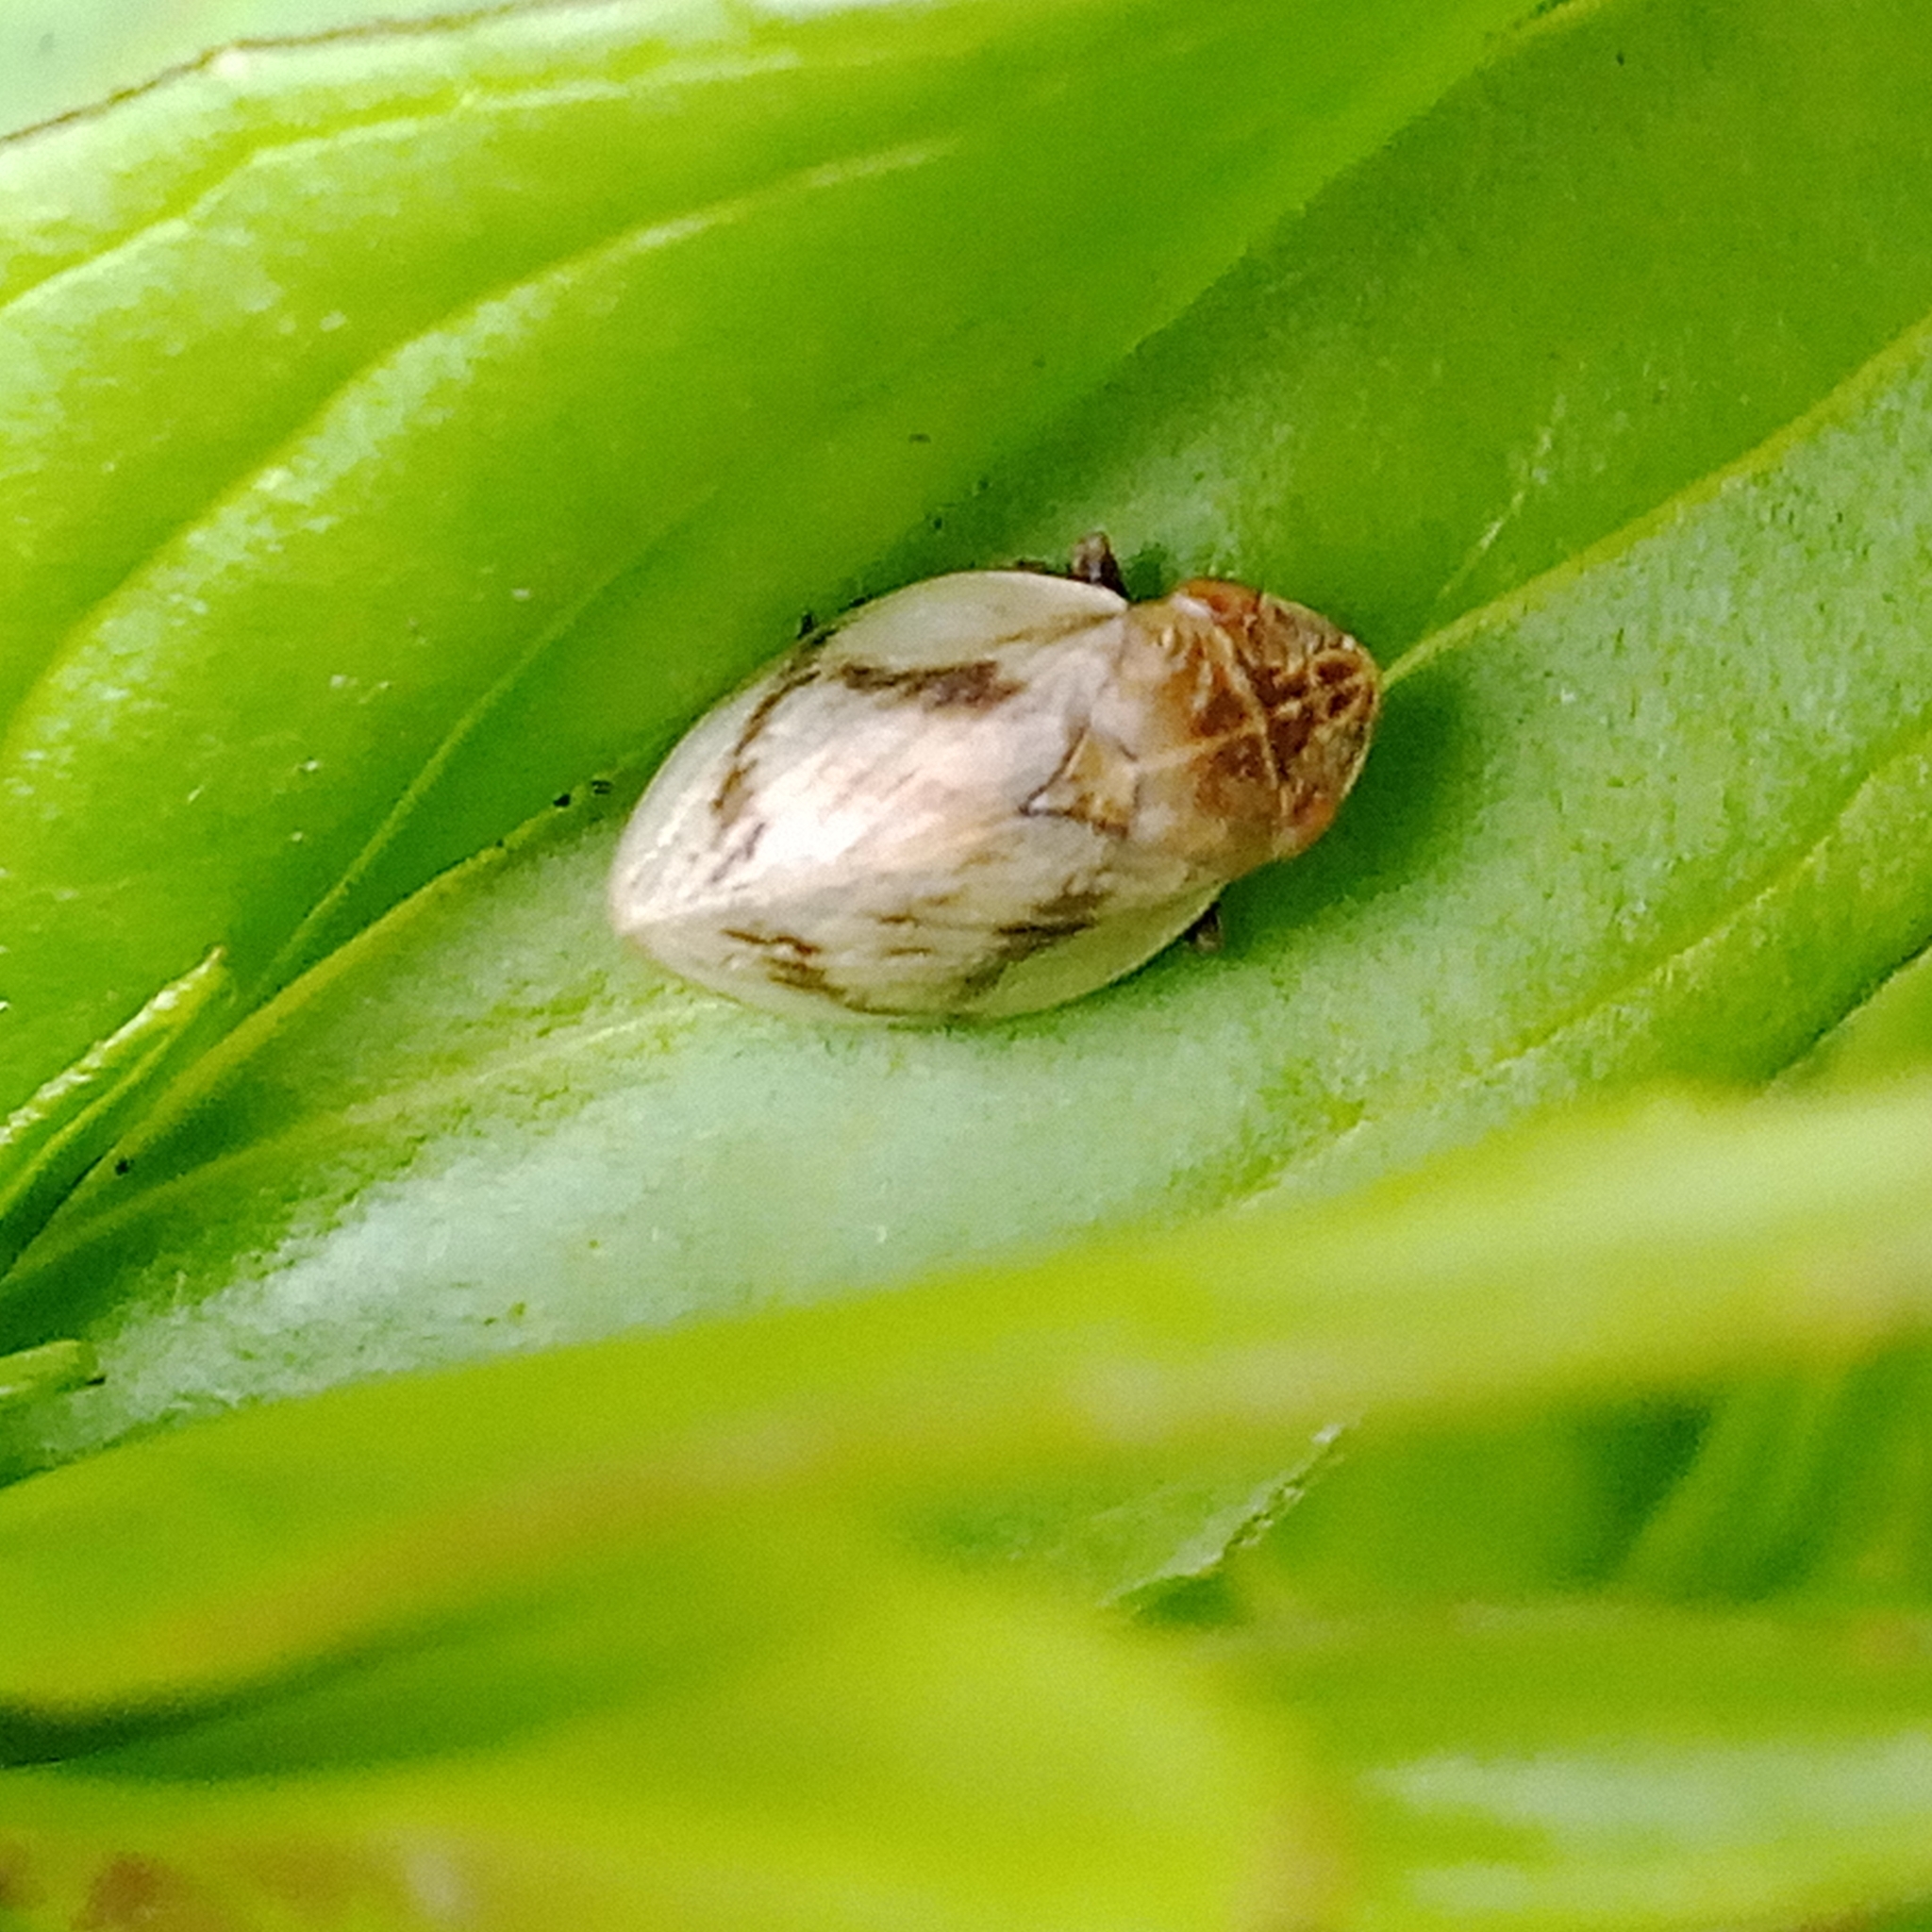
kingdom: Animalia
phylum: Arthropoda
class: Insecta
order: Hemiptera
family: Aphrophoridae
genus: Lepyronia
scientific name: Lepyronia coleoptrata
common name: Leafhopper
